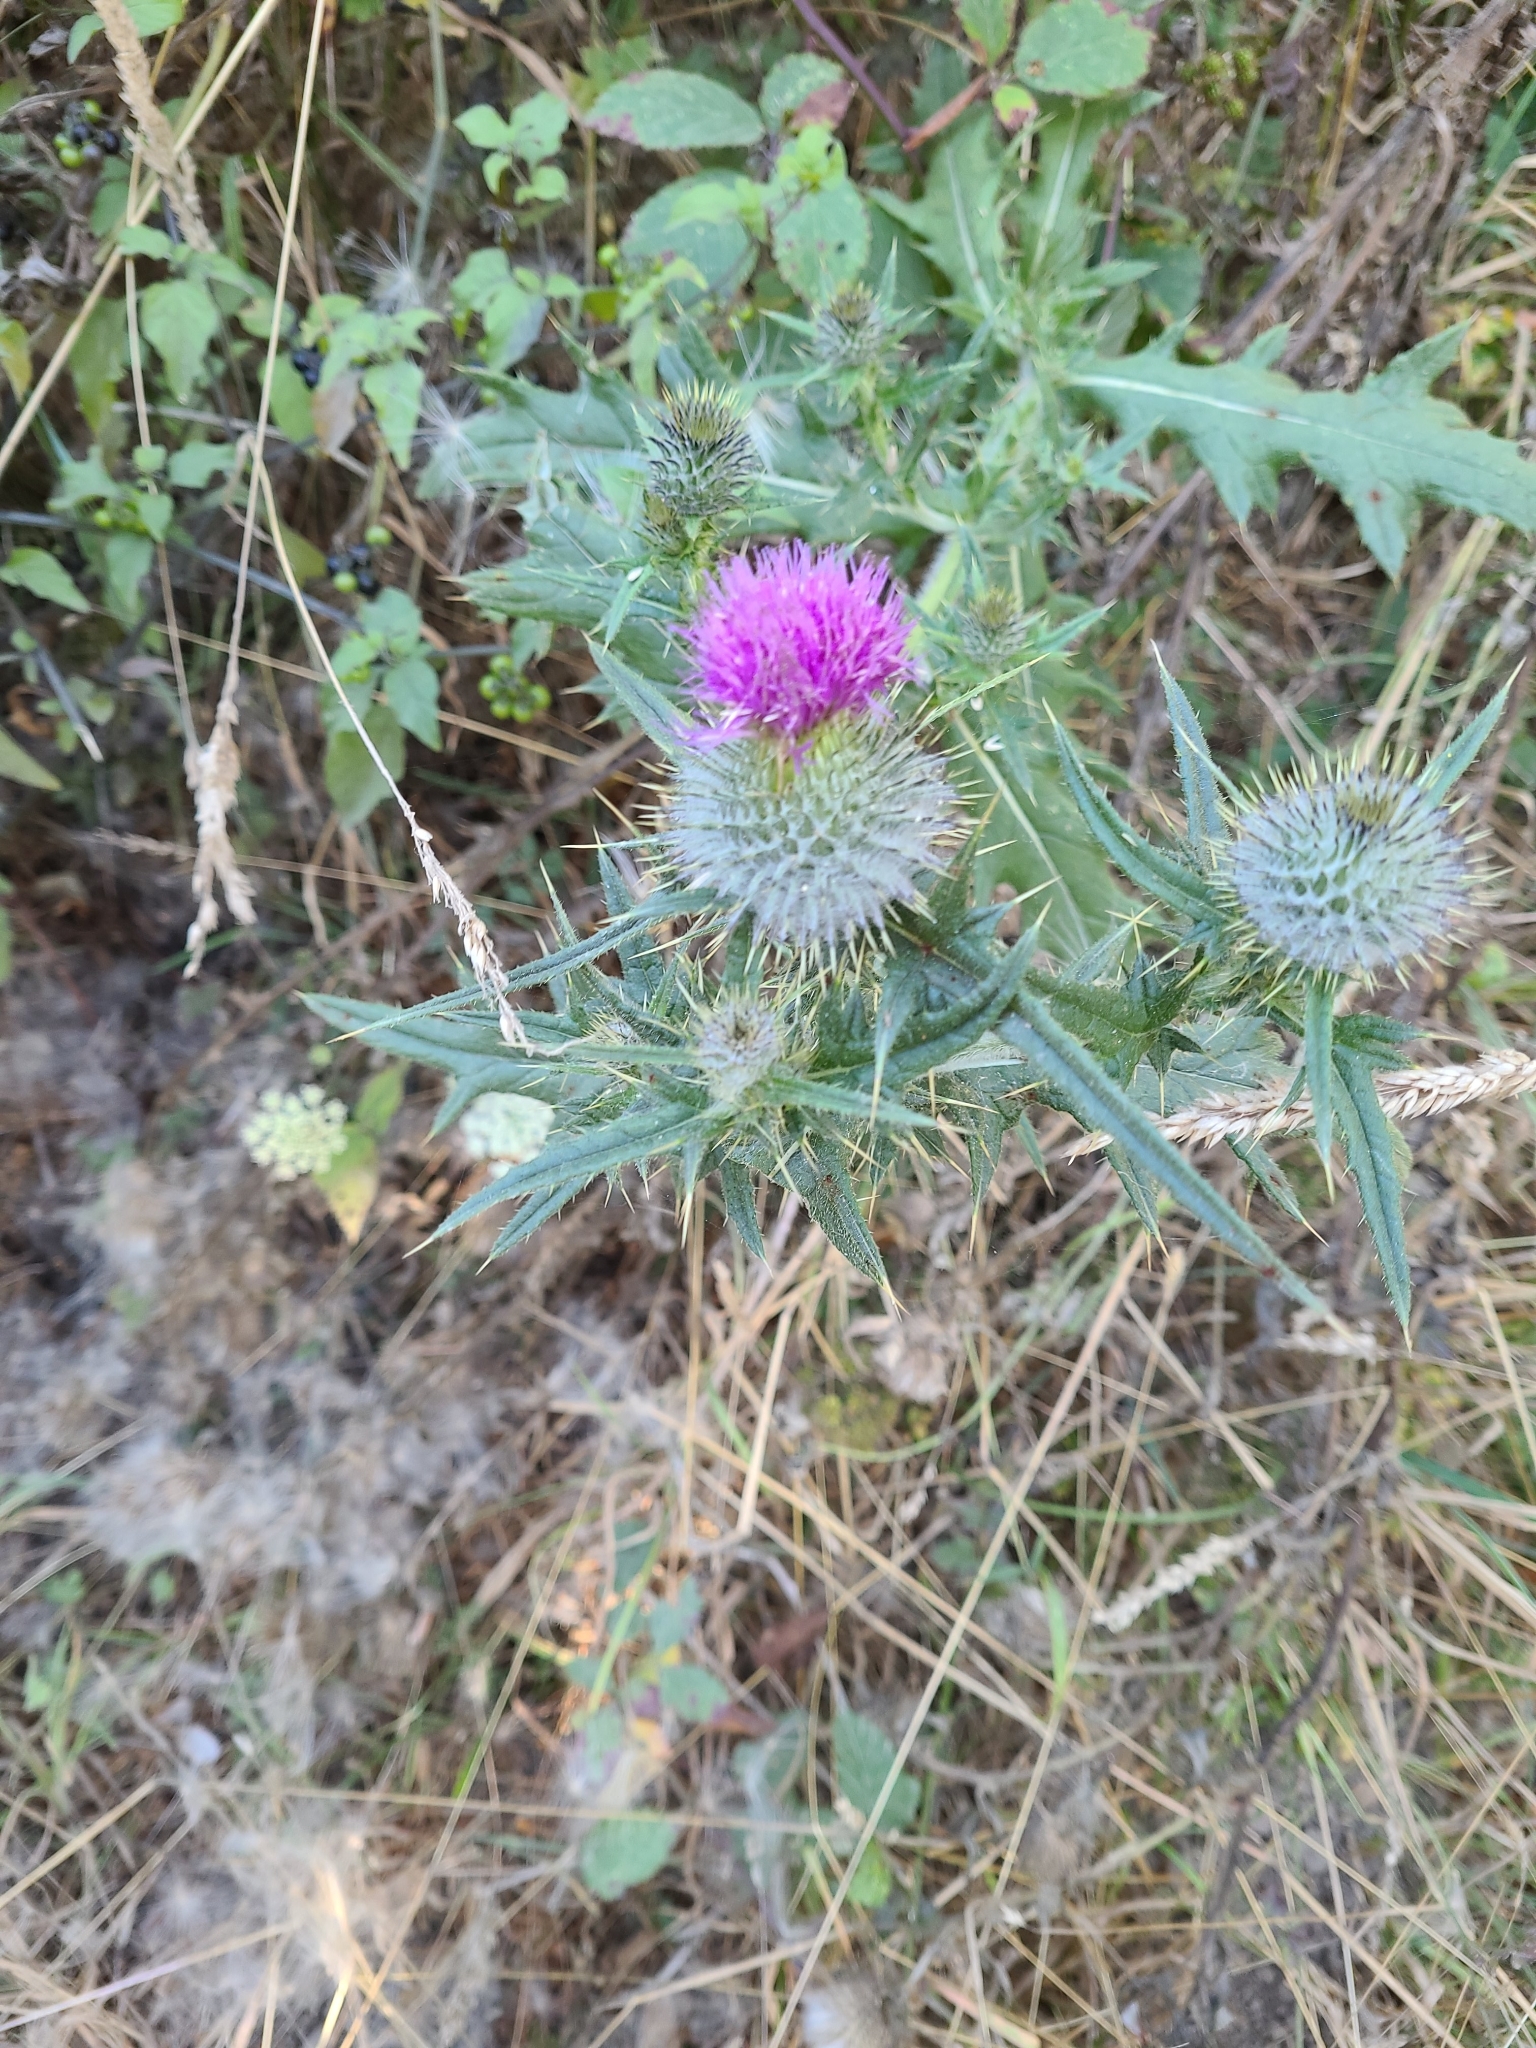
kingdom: Plantae
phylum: Tracheophyta
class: Magnoliopsida
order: Asterales
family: Asteraceae
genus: Cirsium
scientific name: Cirsium vulgare
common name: Bull thistle
